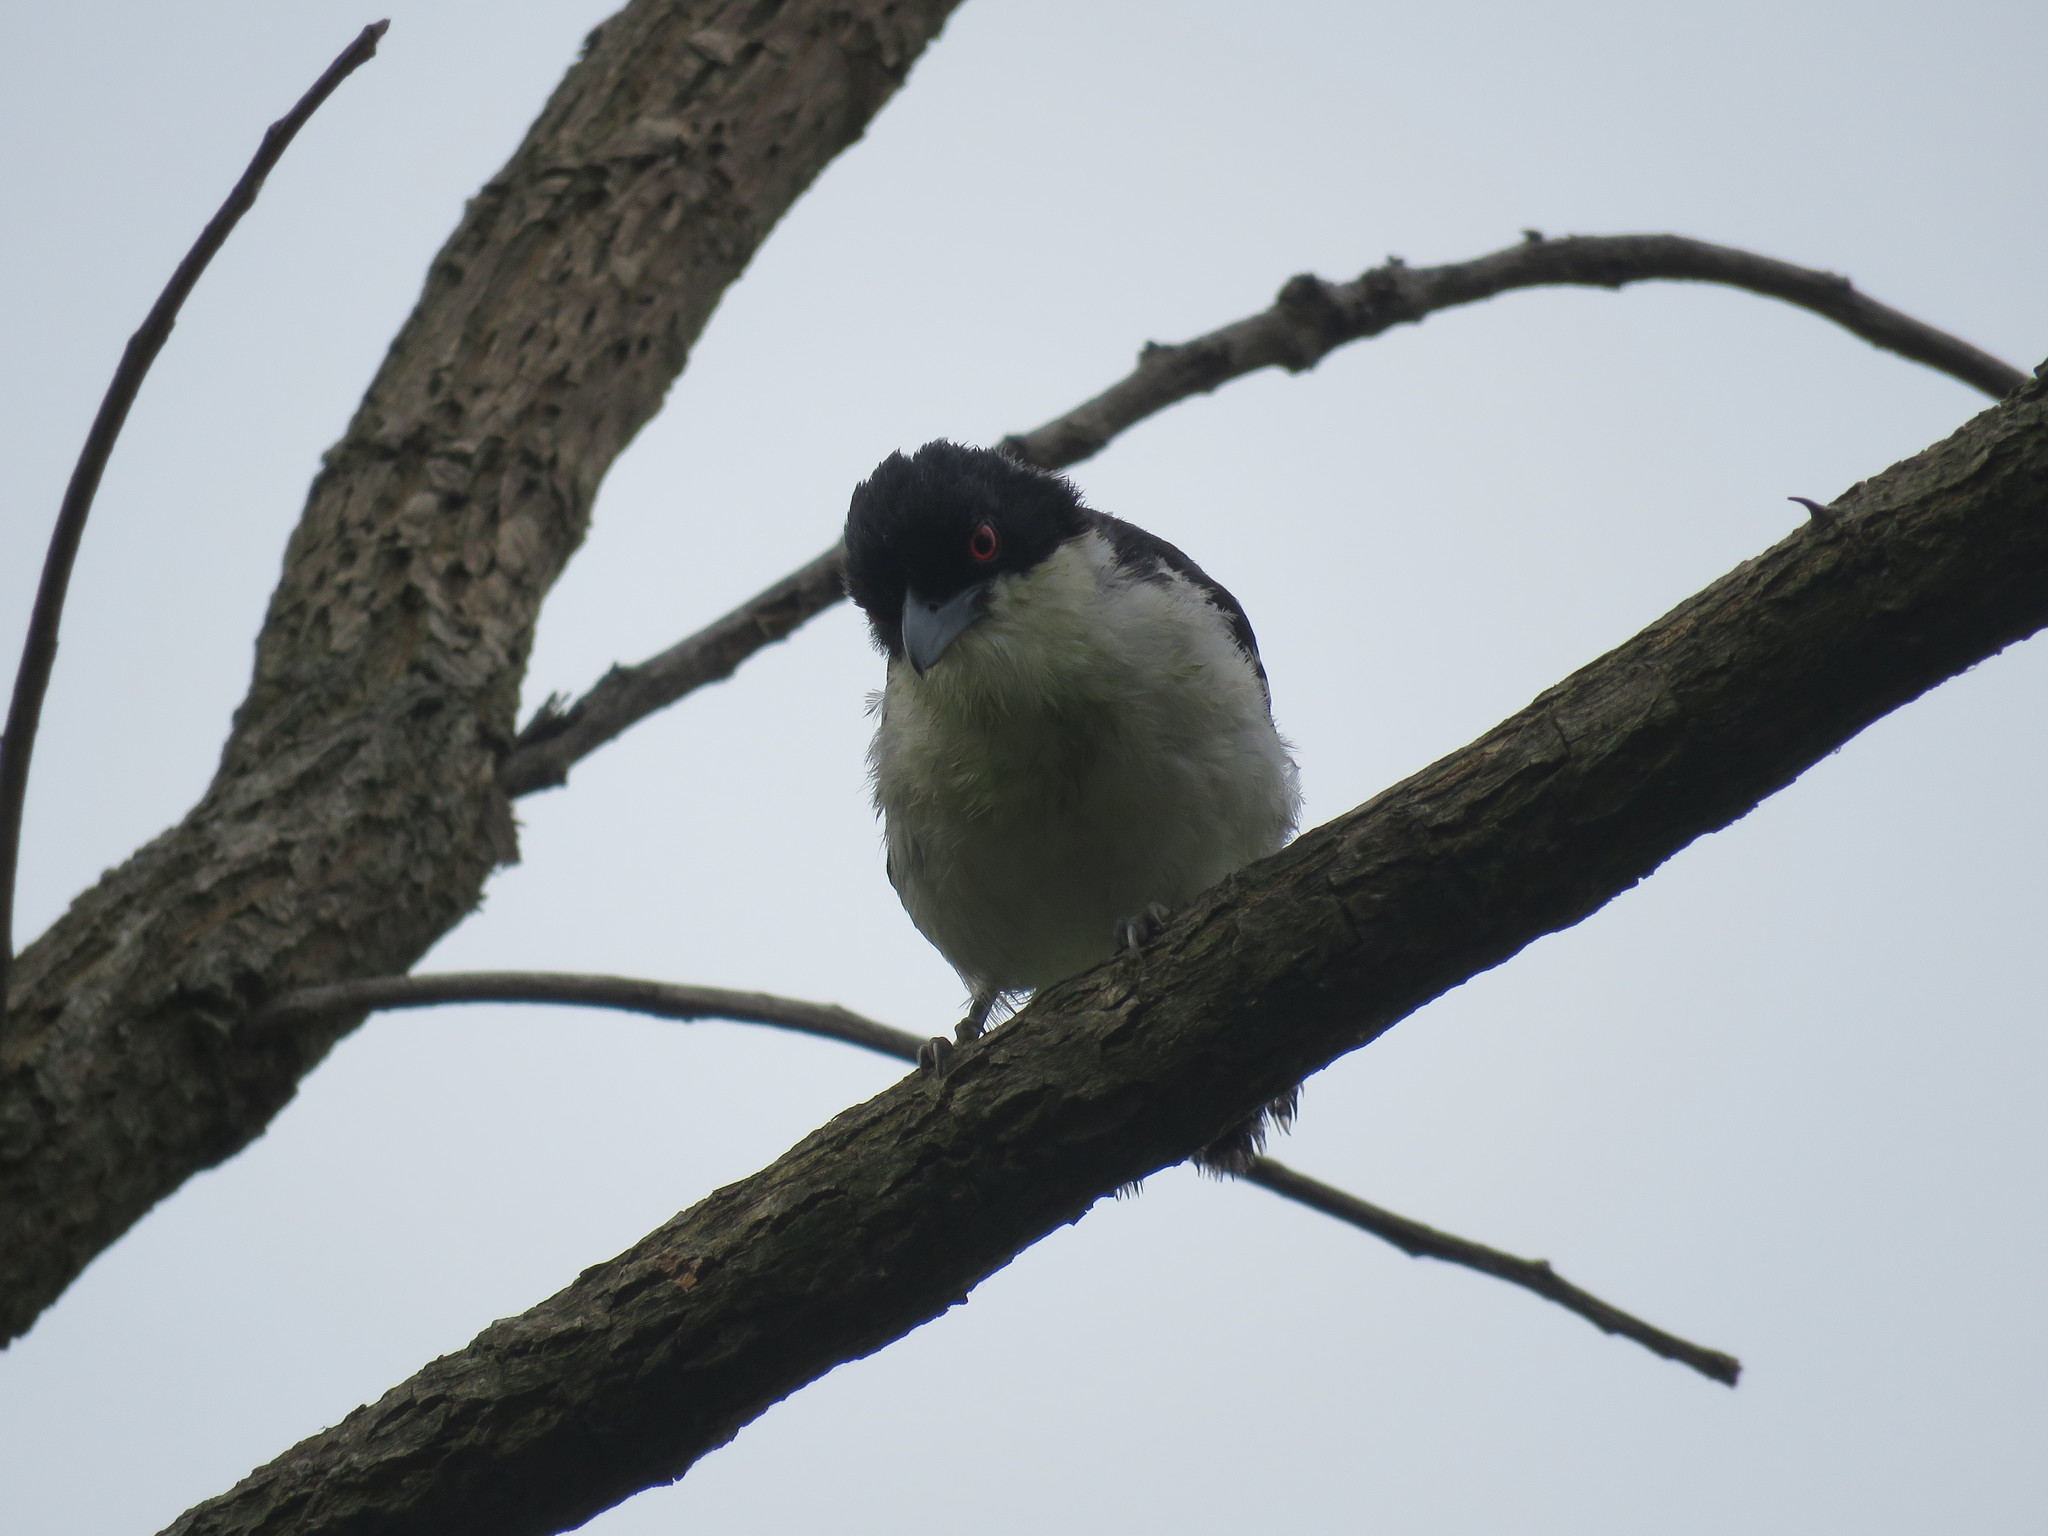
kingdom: Animalia
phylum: Chordata
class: Aves
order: Passeriformes
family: Thamnophilidae
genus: Taraba
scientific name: Taraba major
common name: Great antshrike
